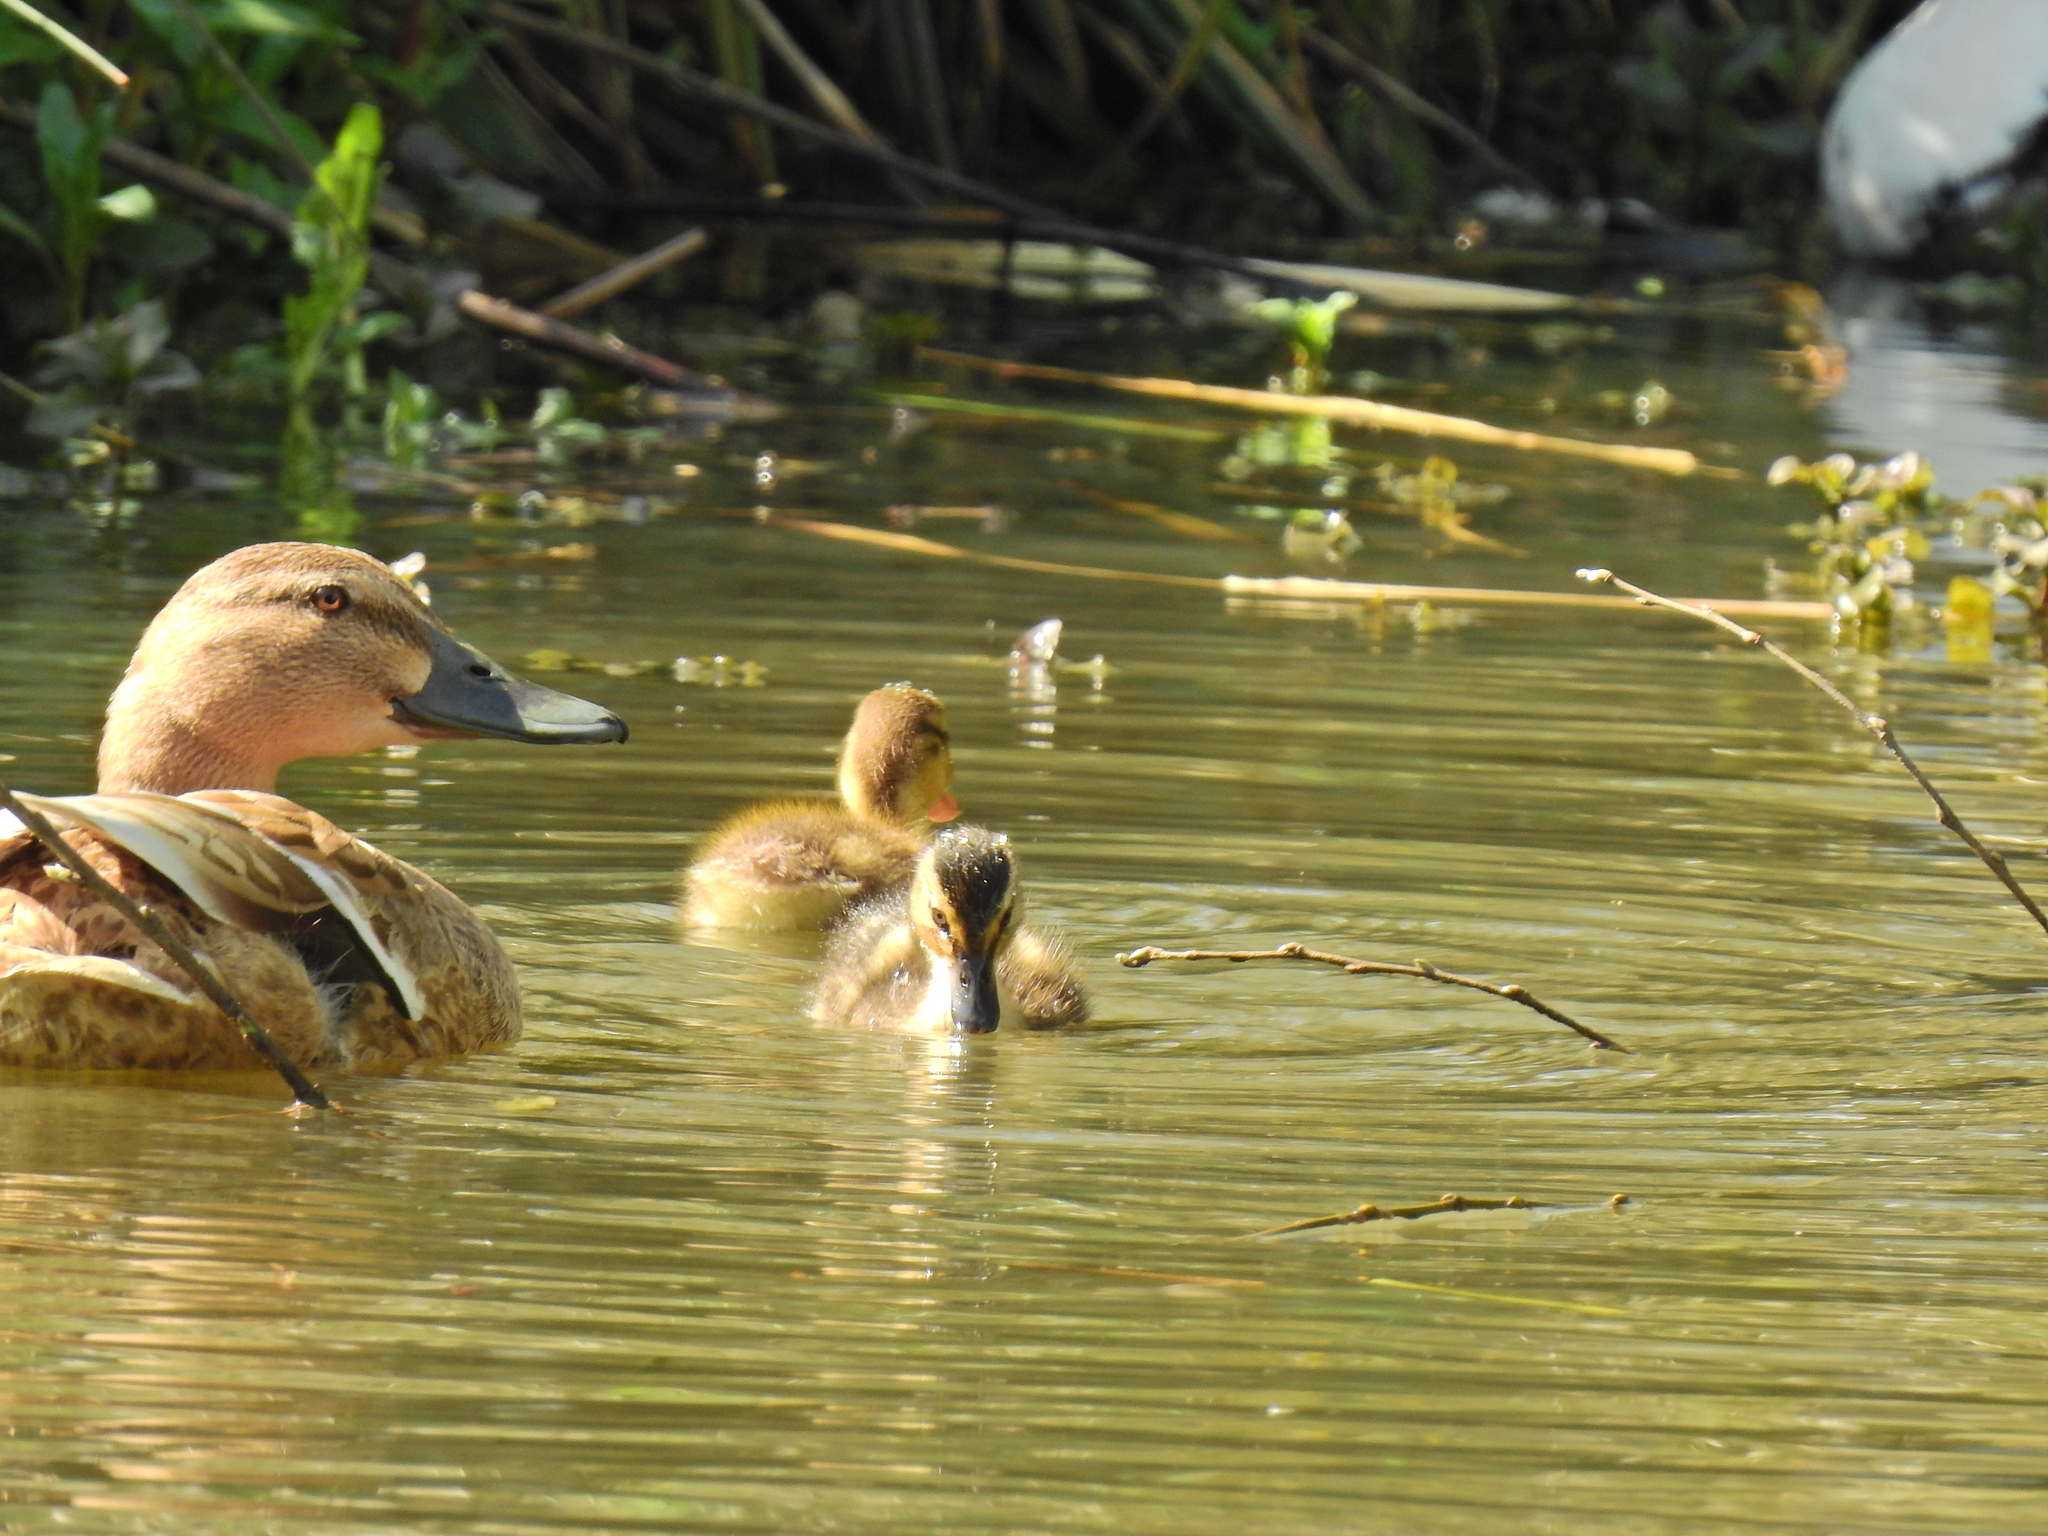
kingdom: Animalia
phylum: Chordata
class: Aves
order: Anseriformes
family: Anatidae
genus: Anas
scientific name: Anas platyrhynchos
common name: Mallard
